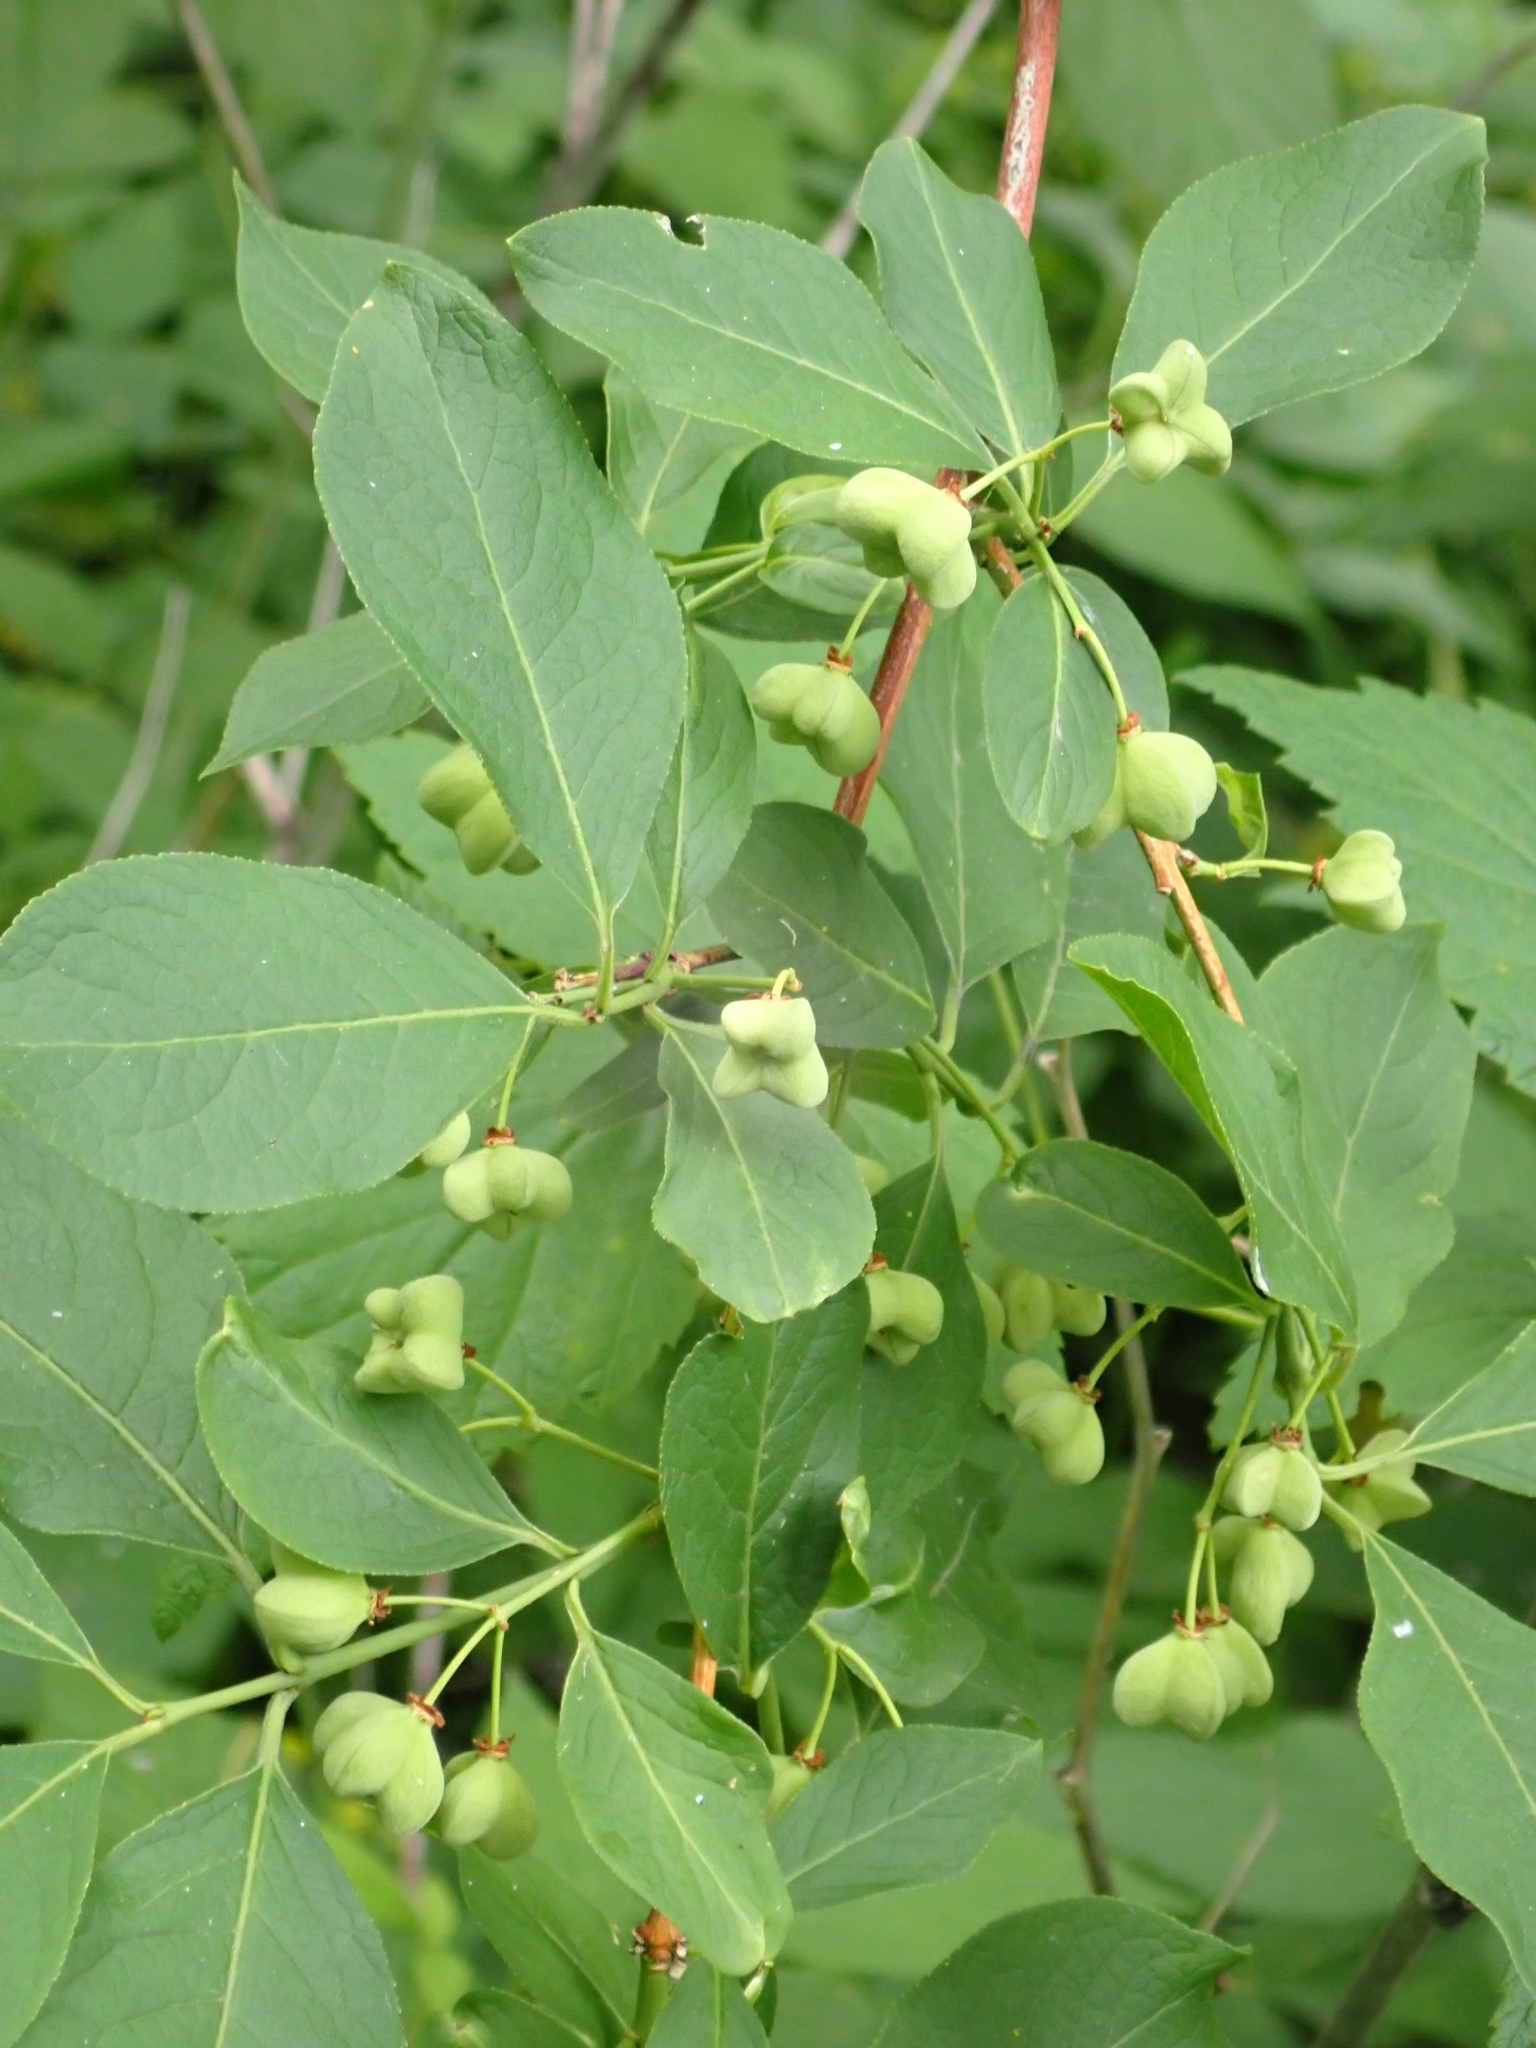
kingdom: Plantae
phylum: Tracheophyta
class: Magnoliopsida
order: Celastrales
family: Celastraceae
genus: Euonymus
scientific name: Euonymus europaeus
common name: Spindle
